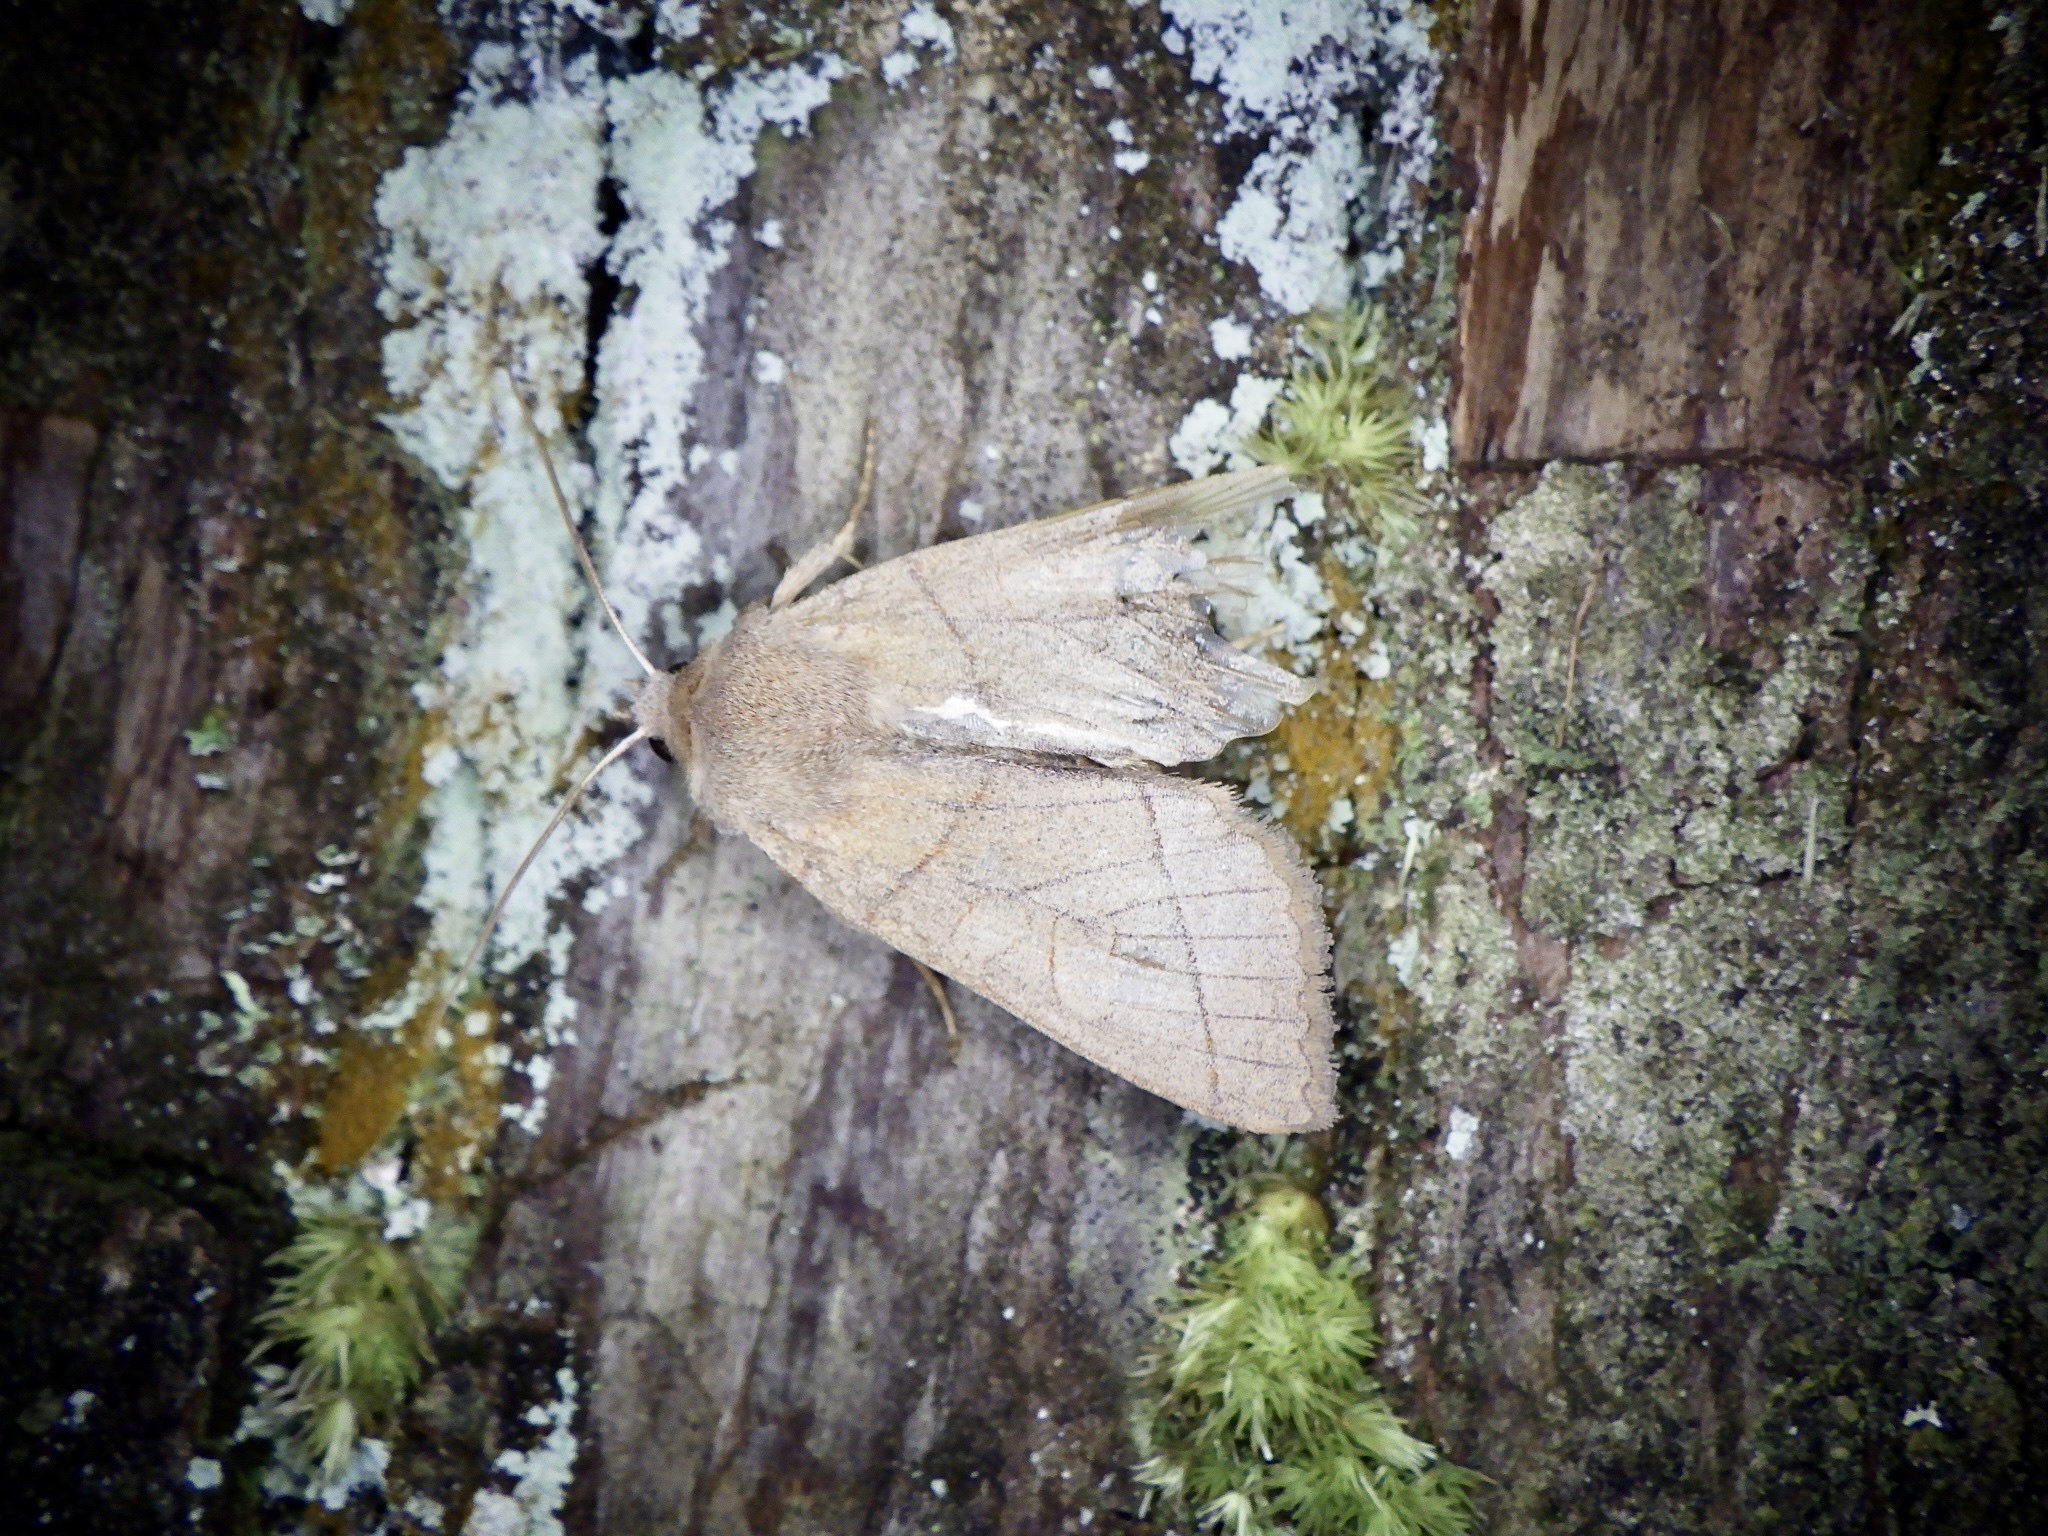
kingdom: Animalia
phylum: Arthropoda
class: Insecta
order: Lepidoptera
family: Noctuidae
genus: Telorta
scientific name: Telorta divergens
